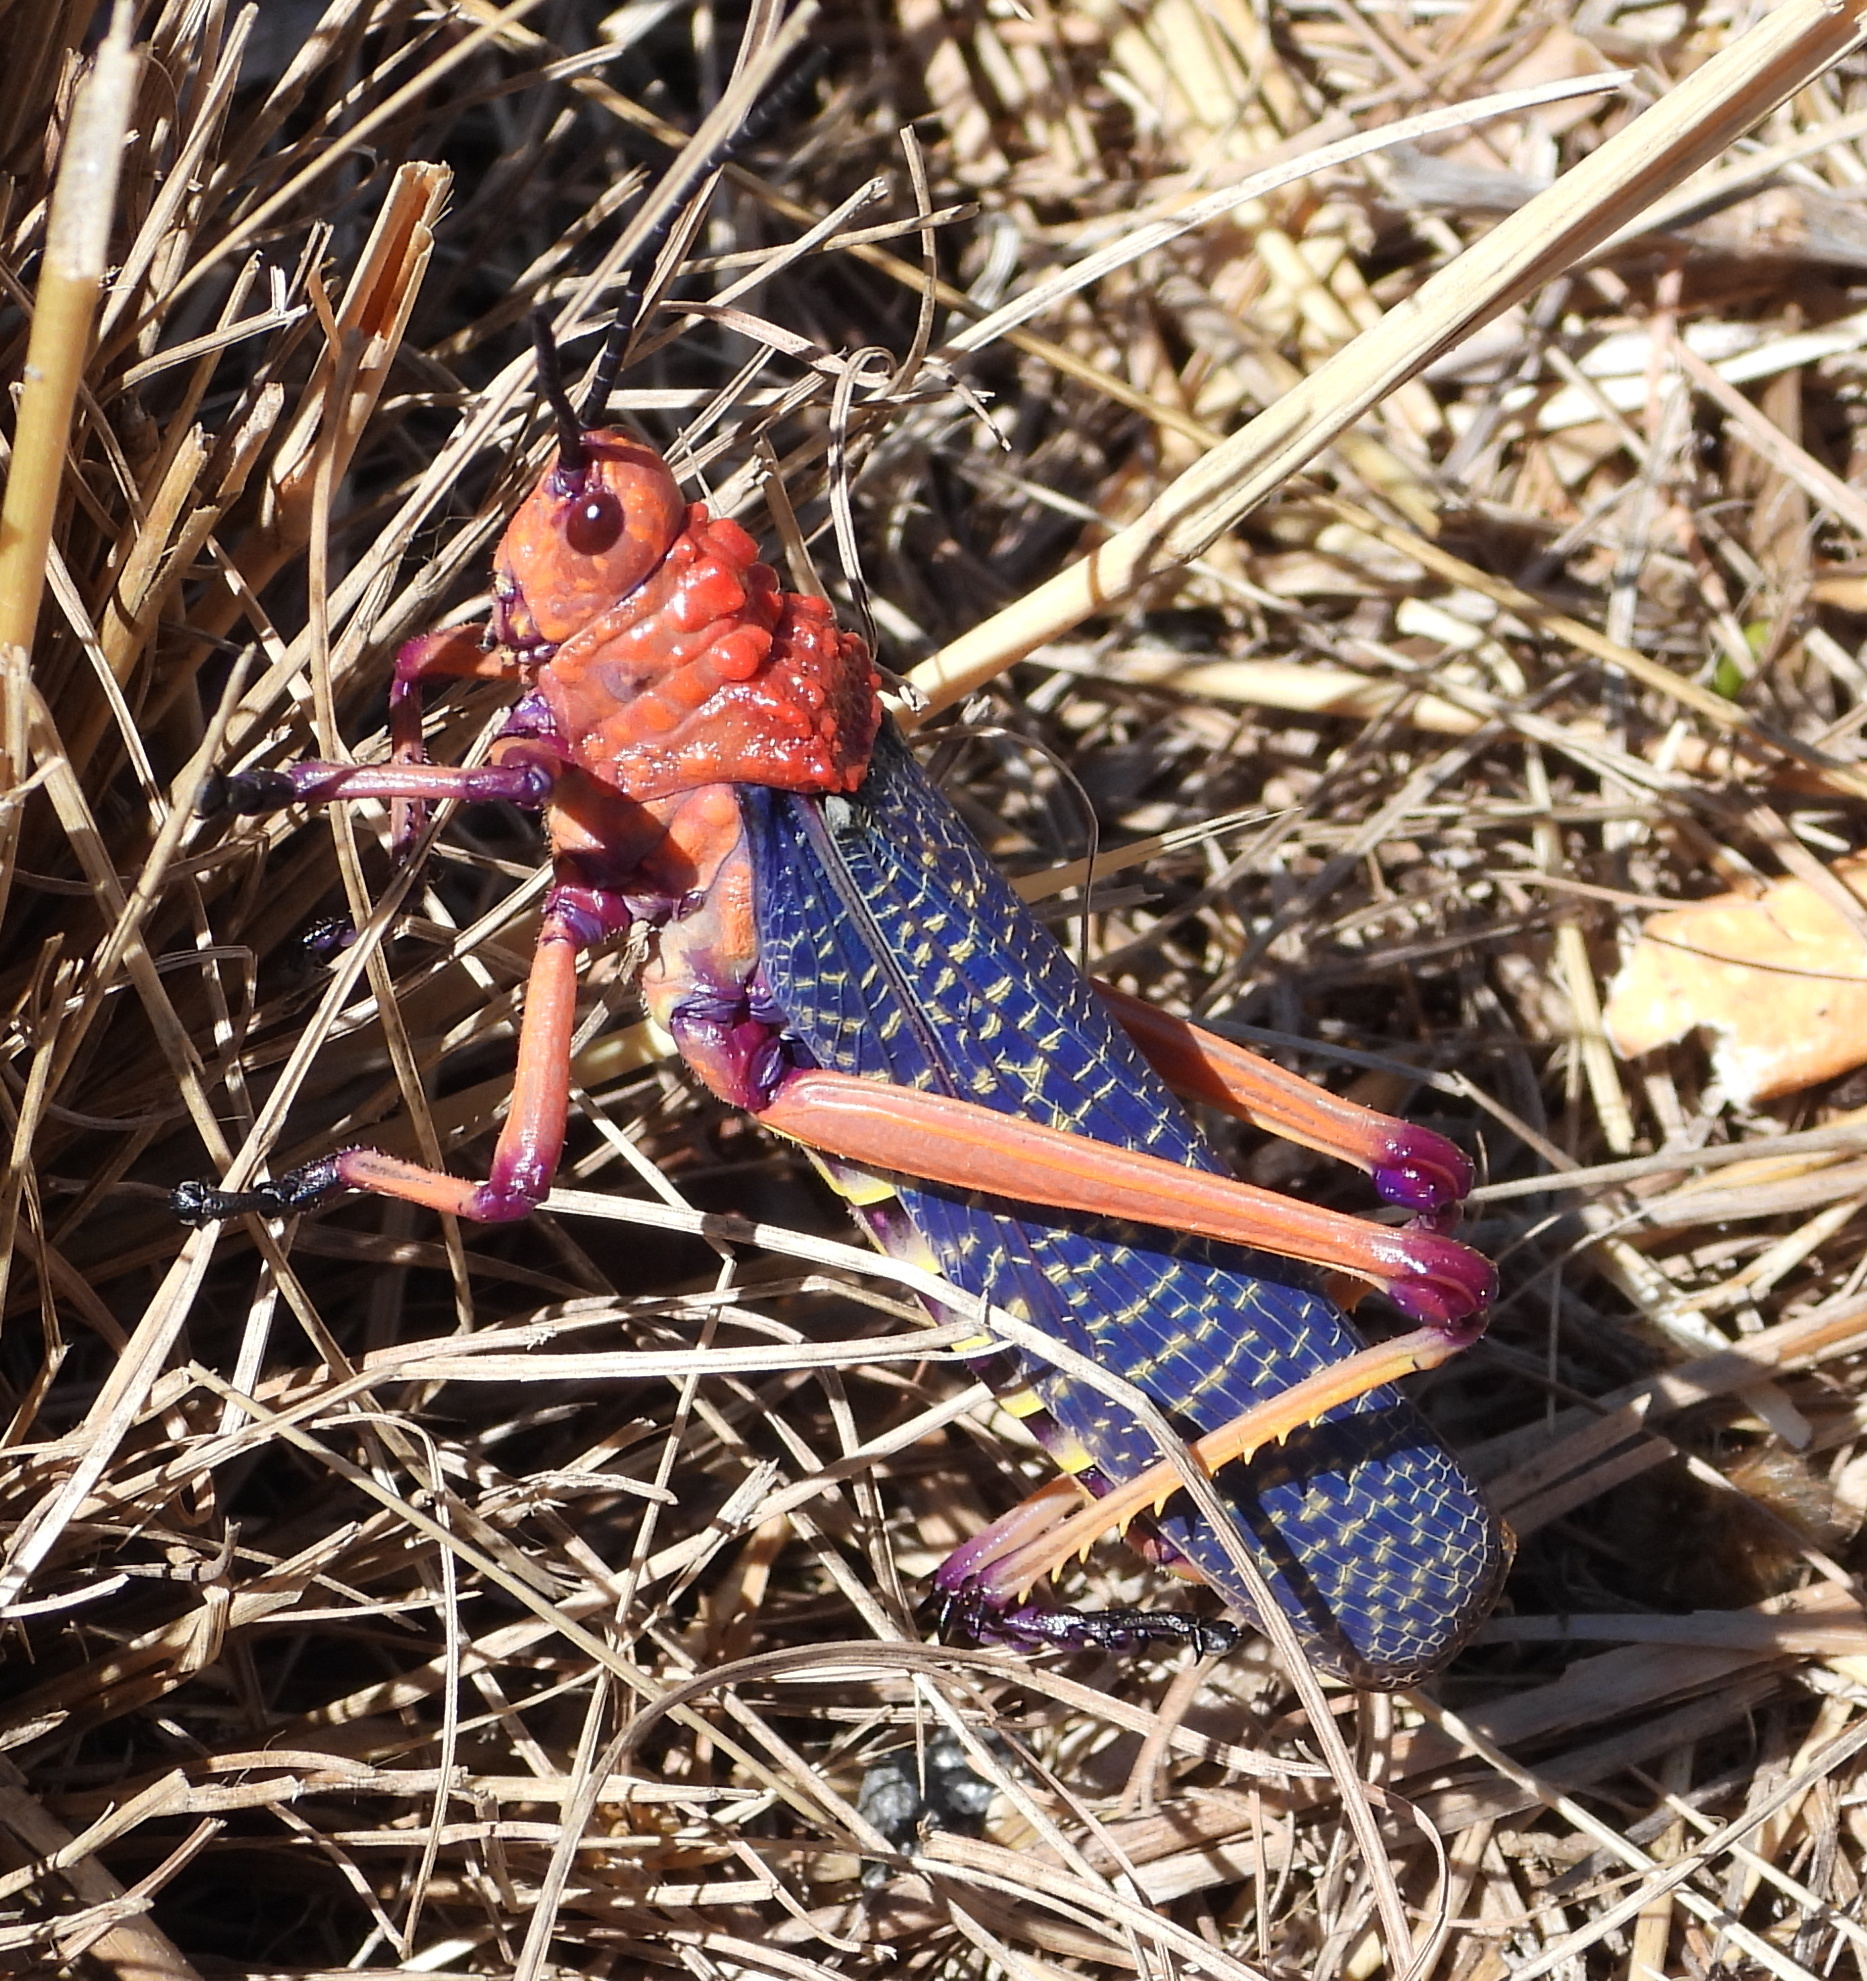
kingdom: Animalia
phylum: Arthropoda
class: Insecta
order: Orthoptera
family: Pyrgomorphidae
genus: Phymateus
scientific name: Phymateus morbillosus
